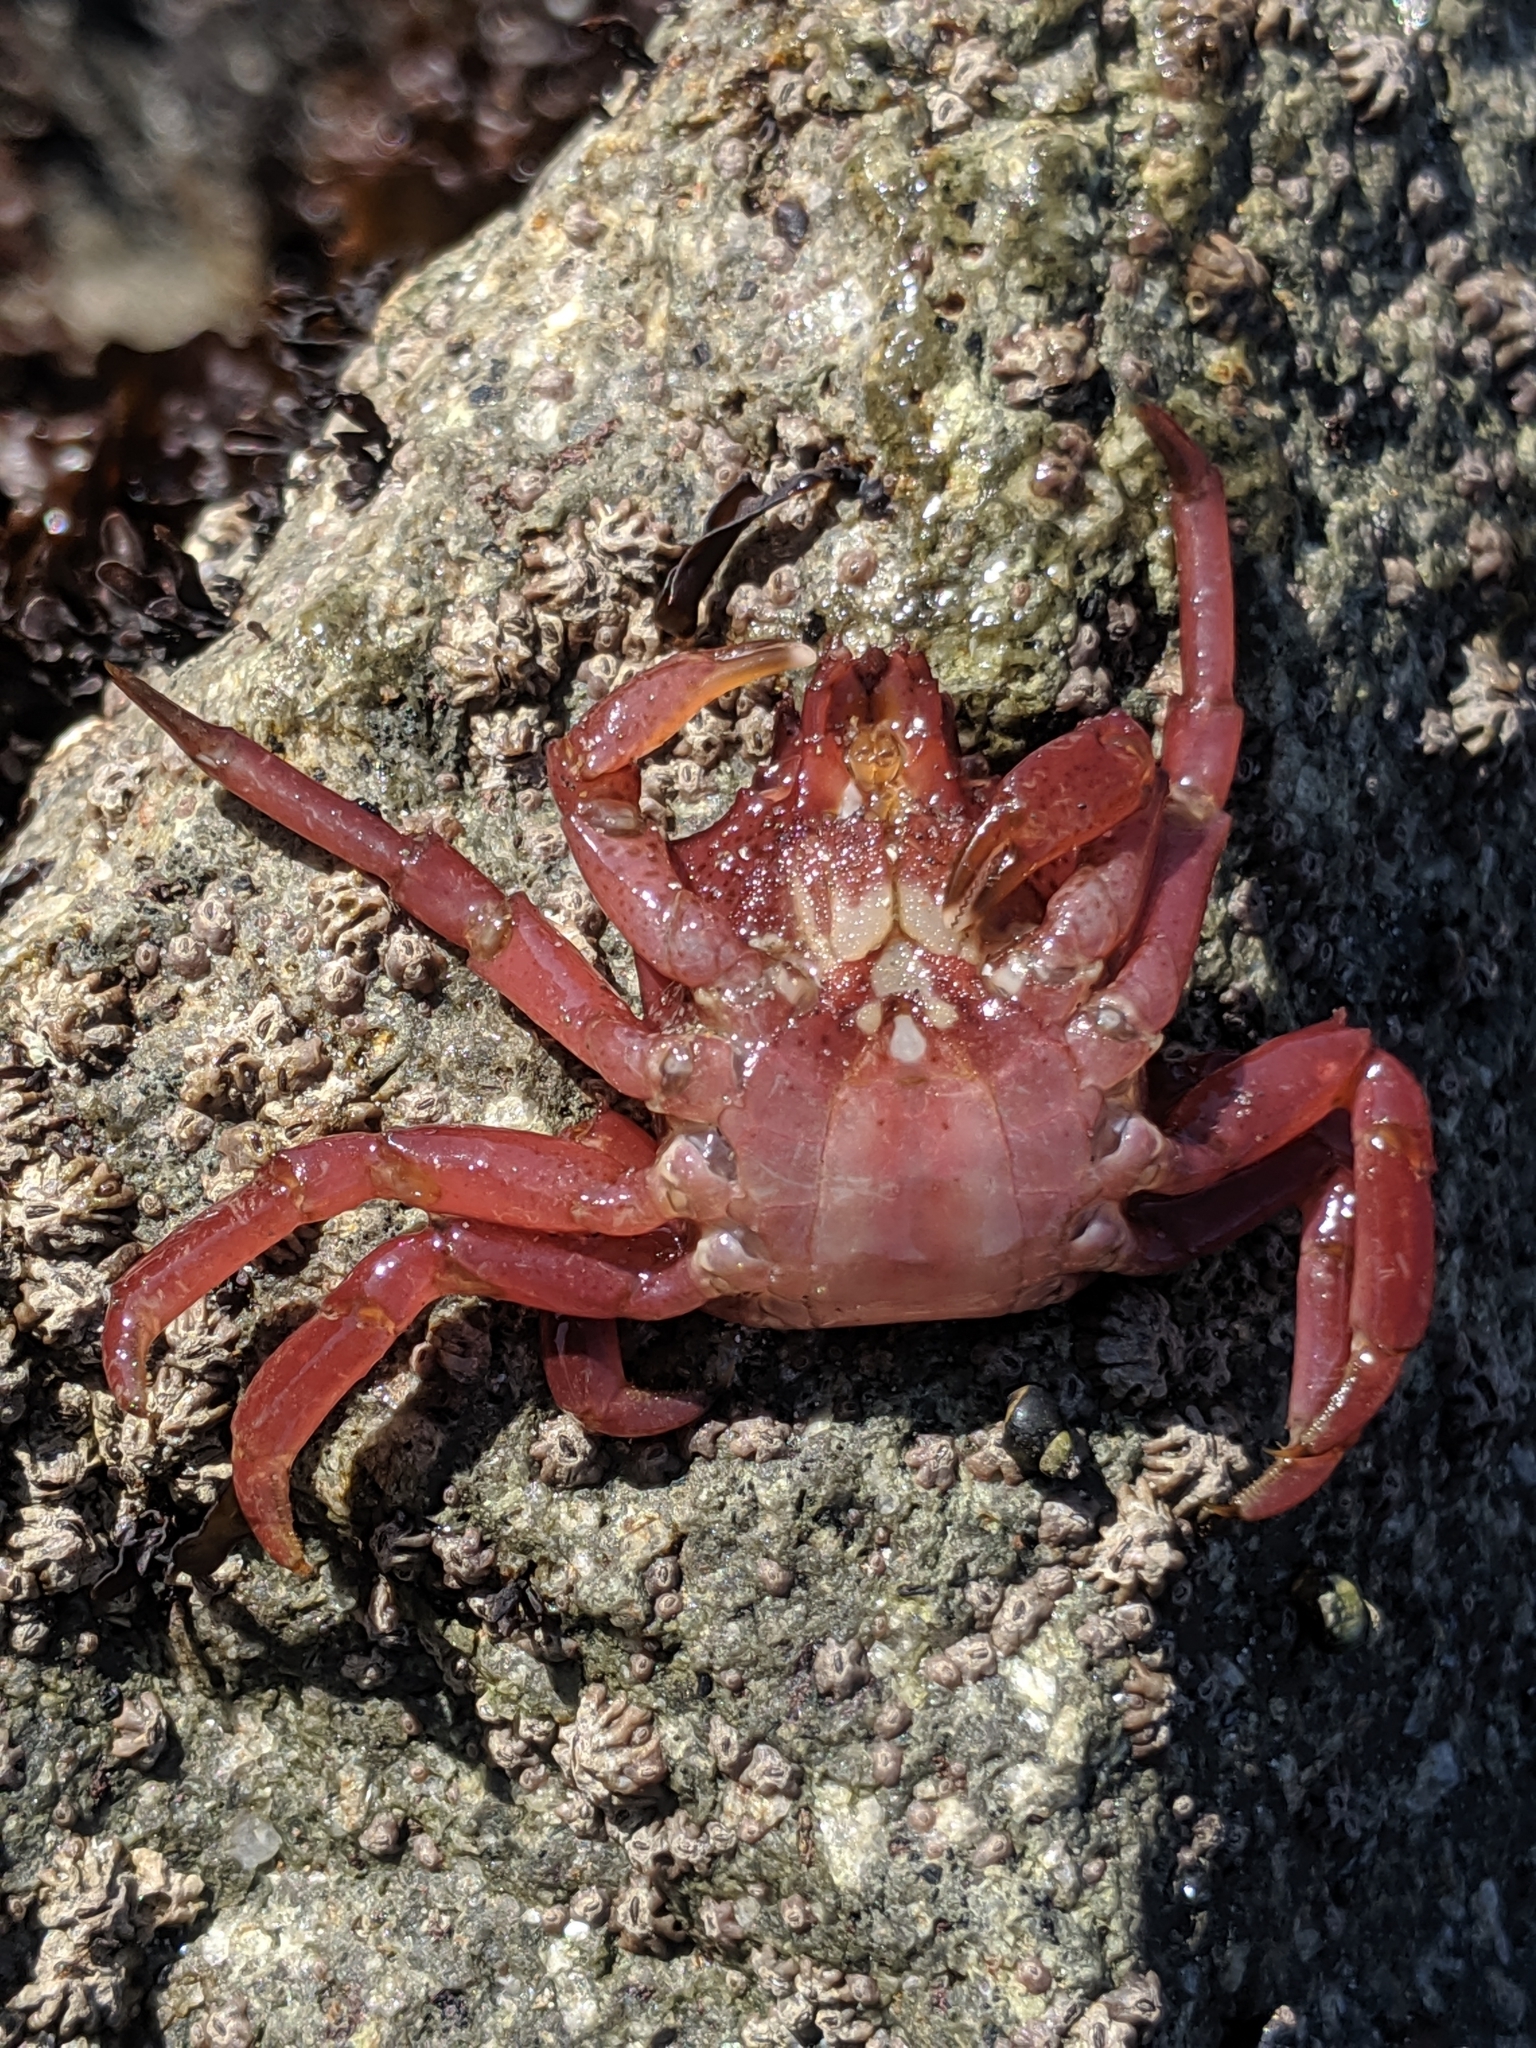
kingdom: Animalia
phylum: Arthropoda
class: Malacostraca
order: Decapoda
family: Epialtidae
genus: Pugettia
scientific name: Pugettia producta
